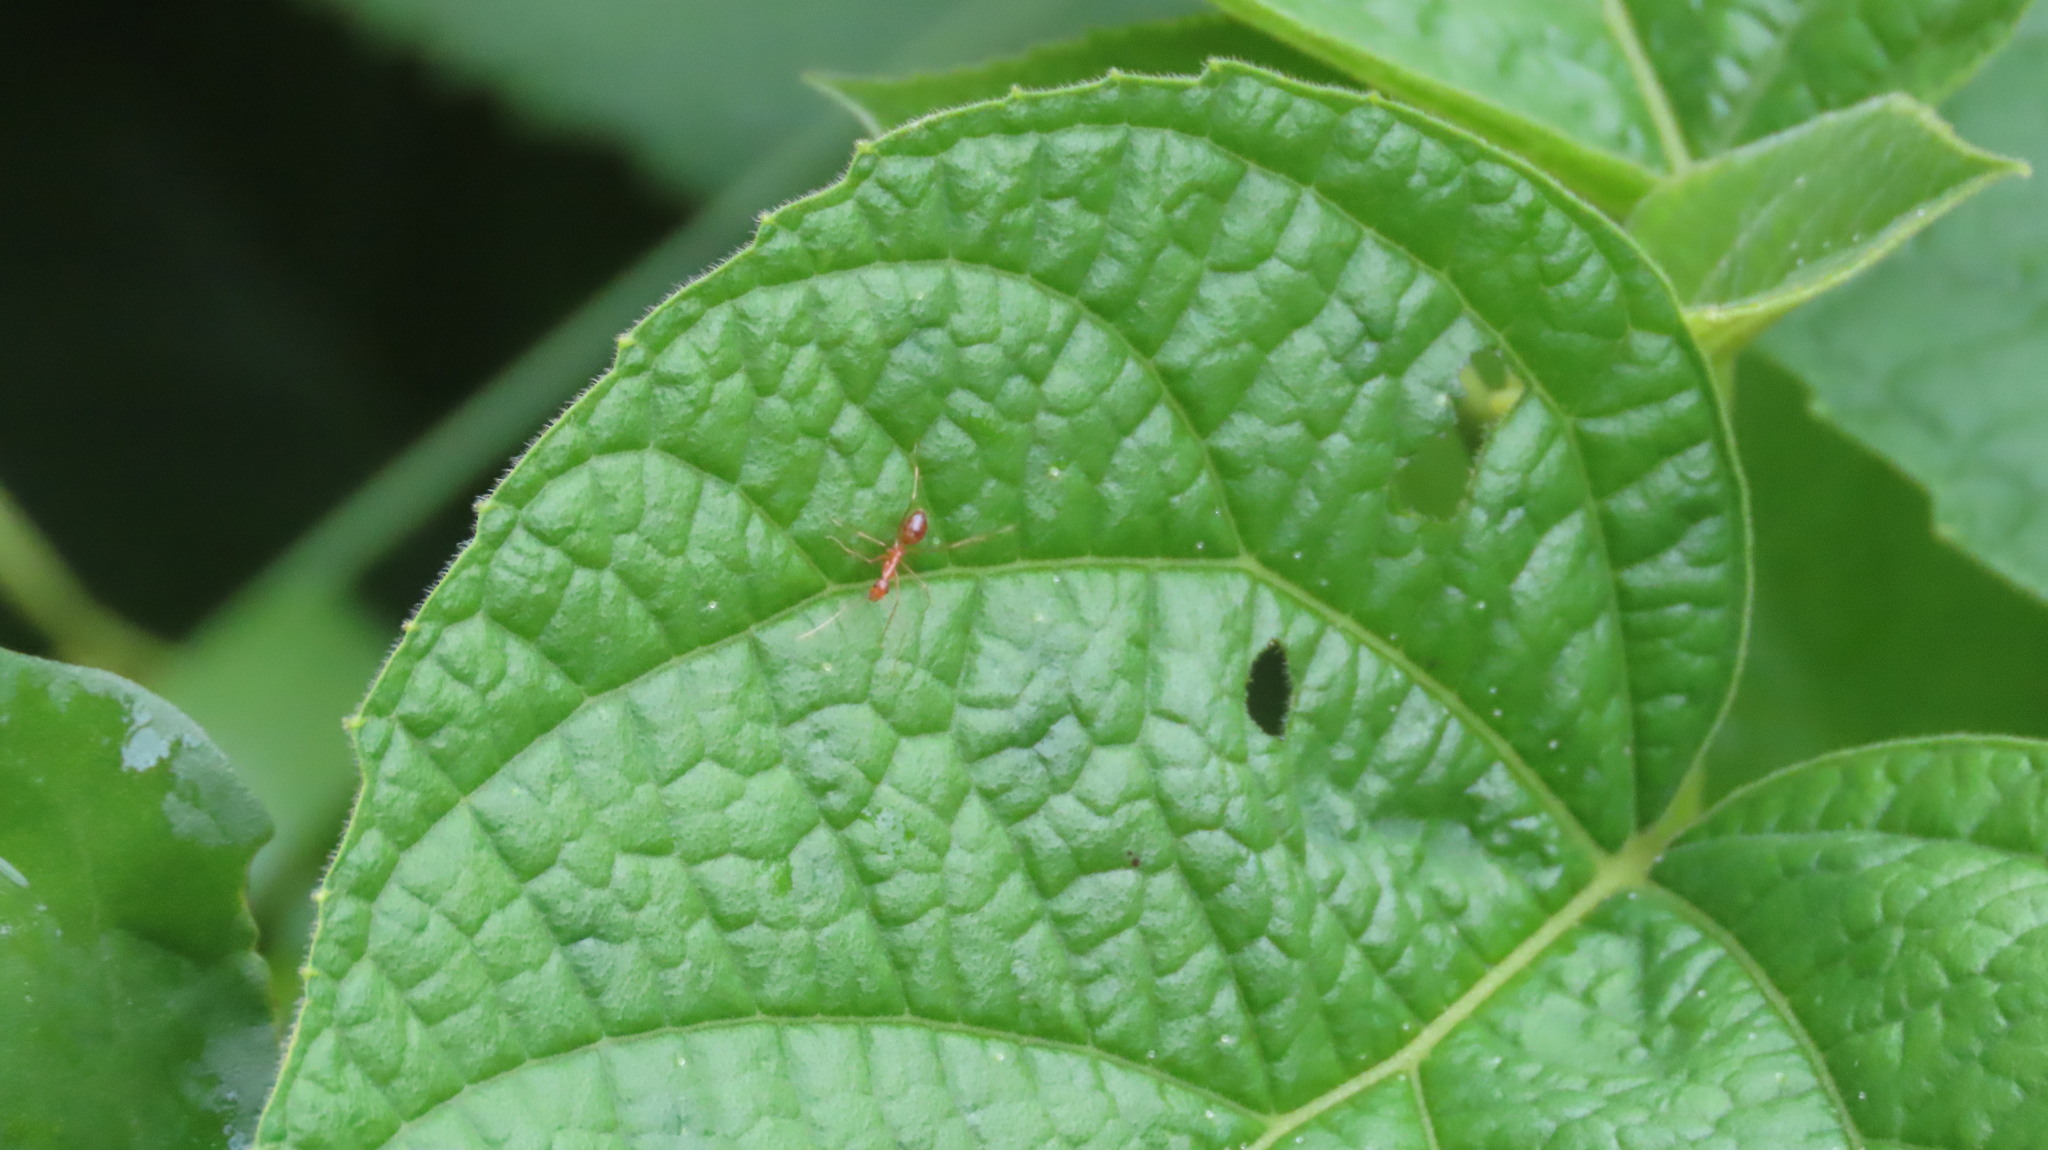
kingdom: Animalia
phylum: Arthropoda
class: Insecta
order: Hymenoptera
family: Formicidae
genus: Anoplolepis
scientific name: Anoplolepis gracilipes
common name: Ant
